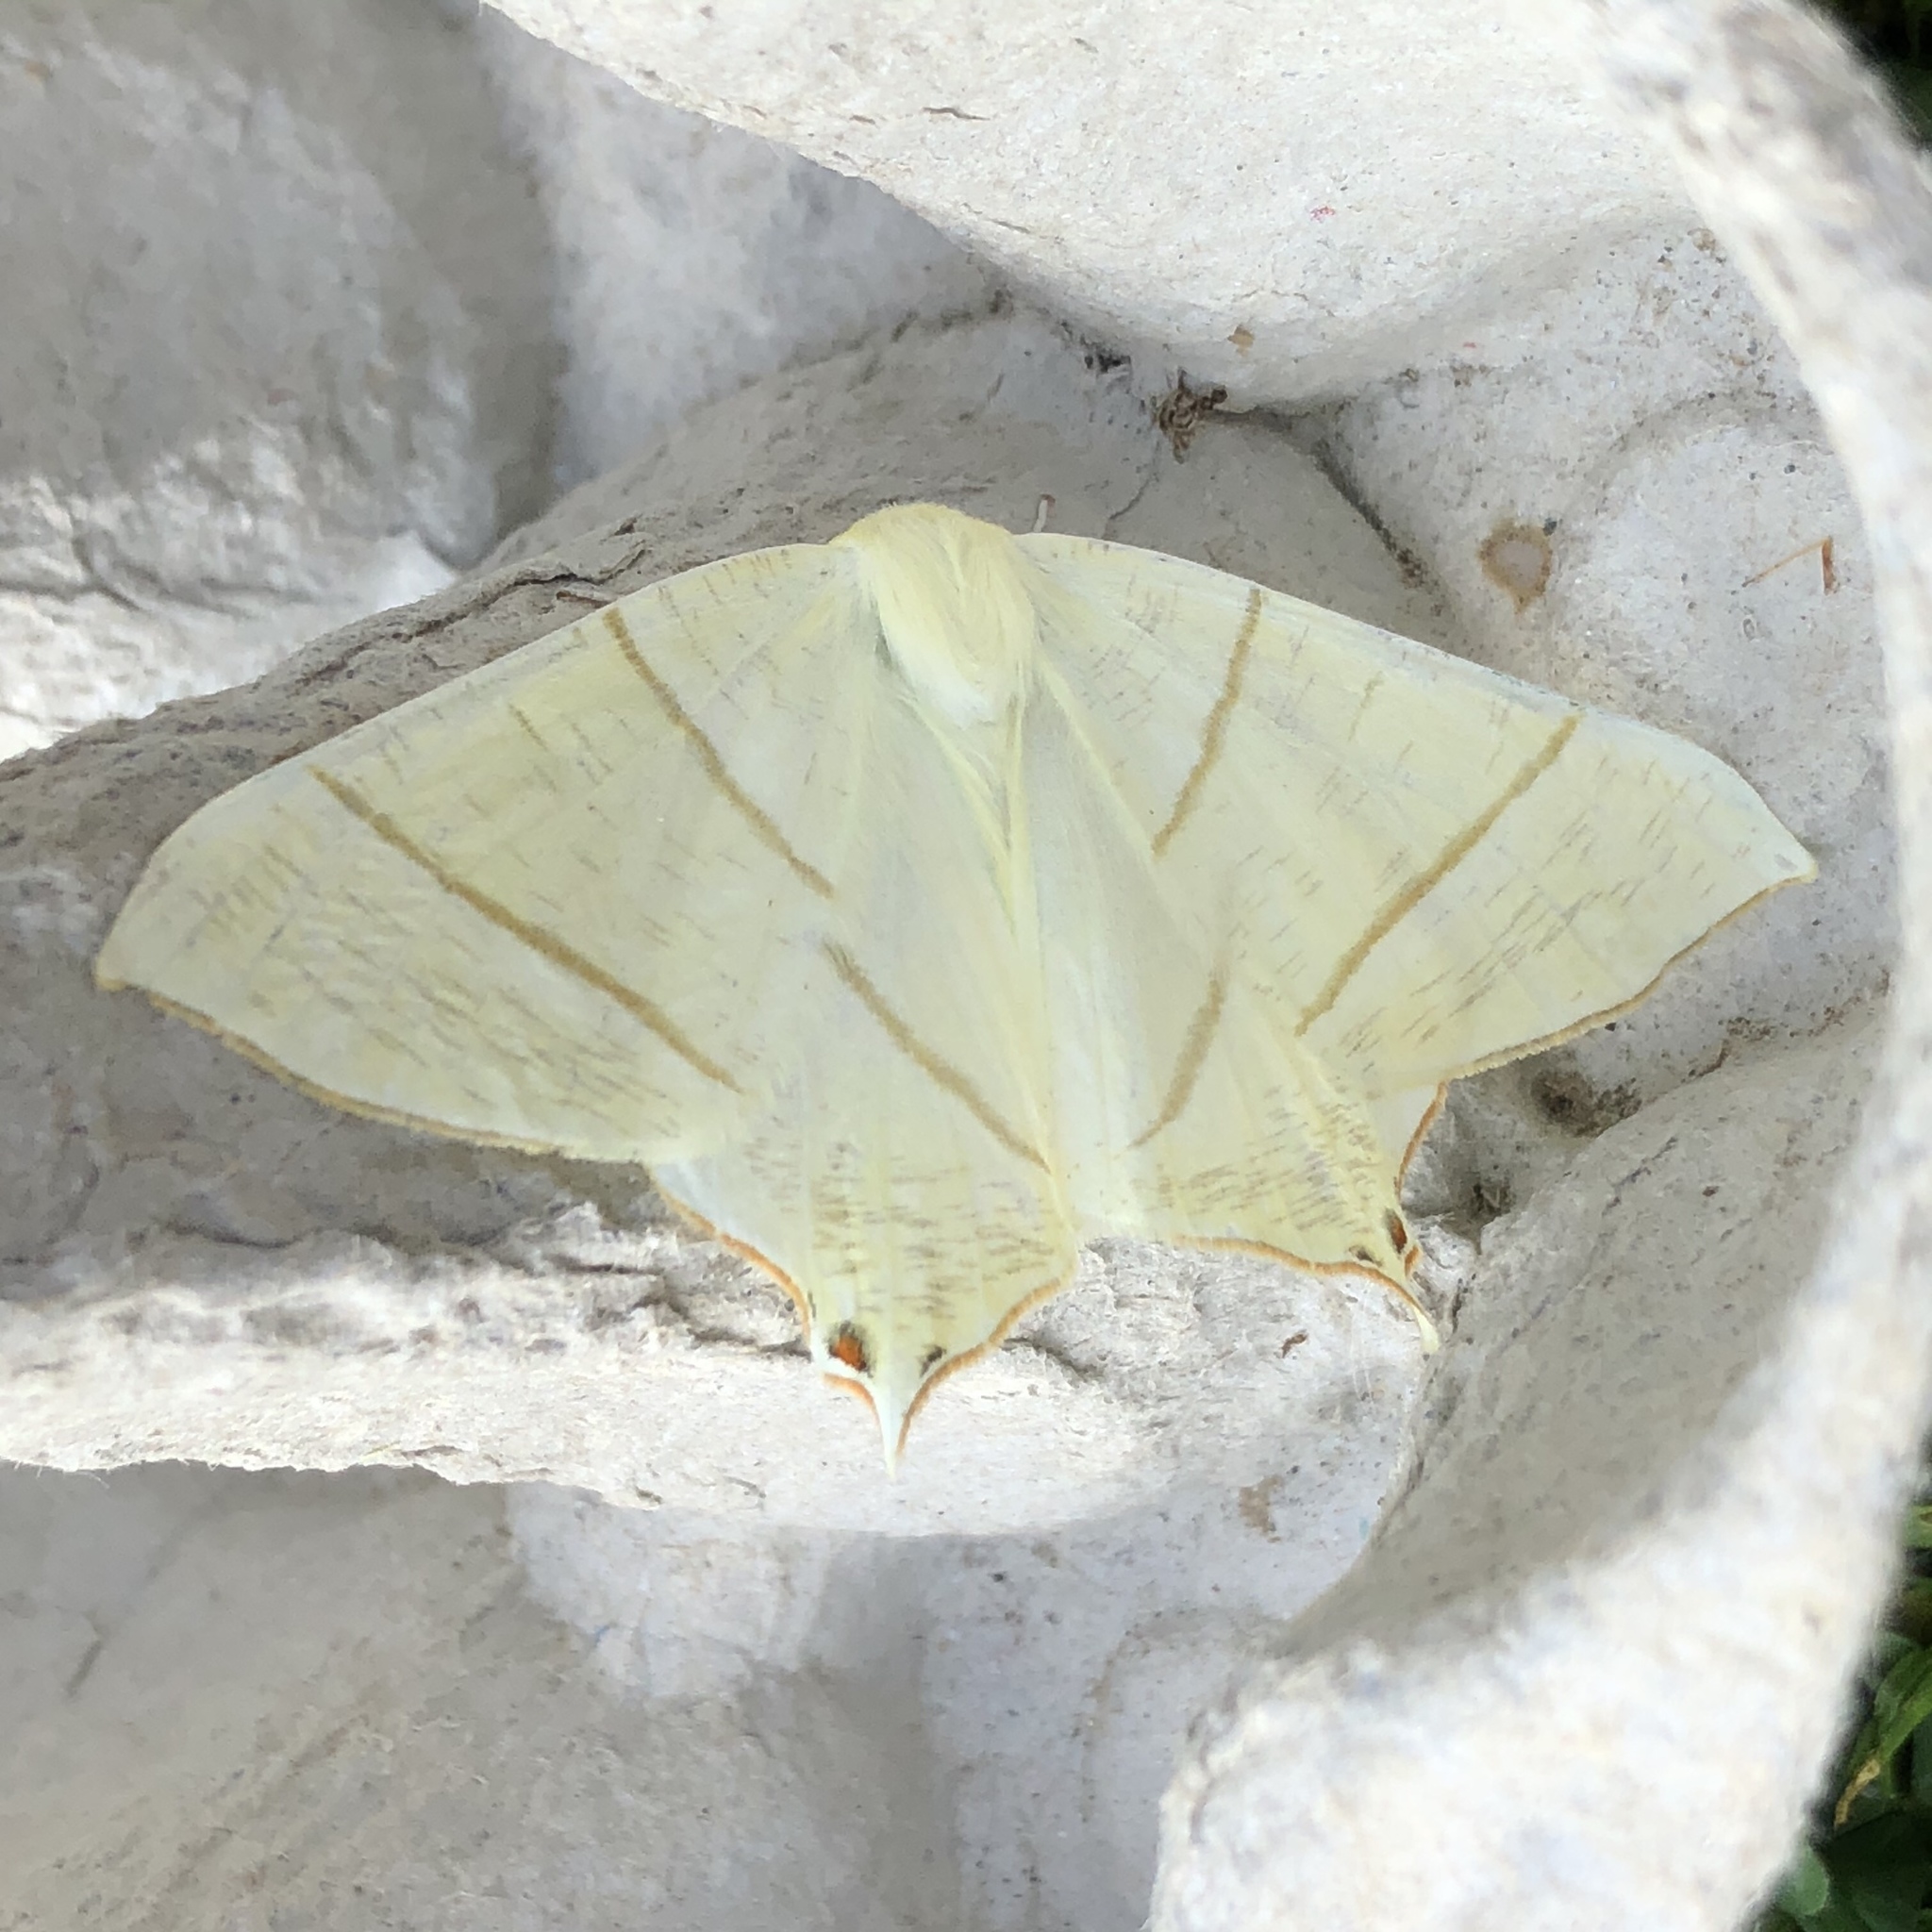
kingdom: Animalia
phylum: Arthropoda
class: Insecta
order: Lepidoptera
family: Geometridae
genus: Ourapteryx
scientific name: Ourapteryx sambucaria
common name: Swallow-tailed moth
